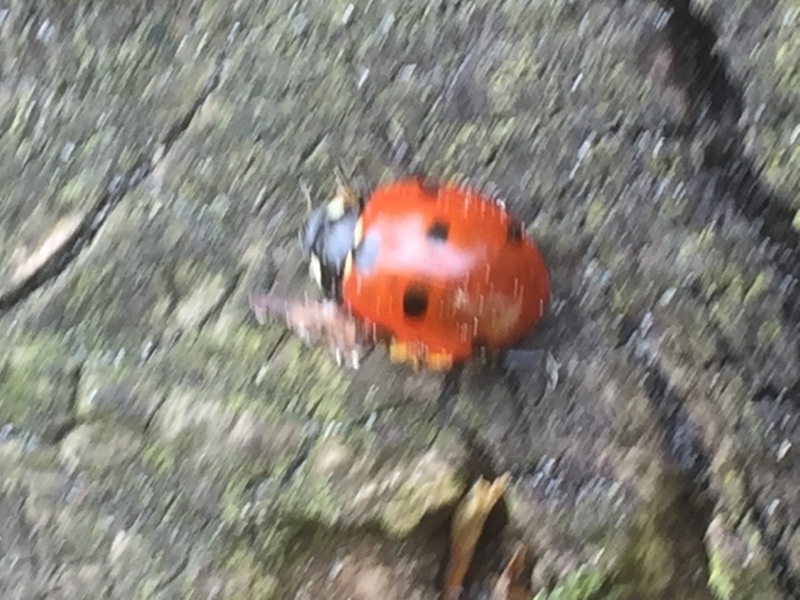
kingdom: Animalia
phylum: Arthropoda
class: Insecta
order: Coleoptera
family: Coccinellidae
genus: Coccinella
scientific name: Coccinella septempunctata
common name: Sevenspotted lady beetle
